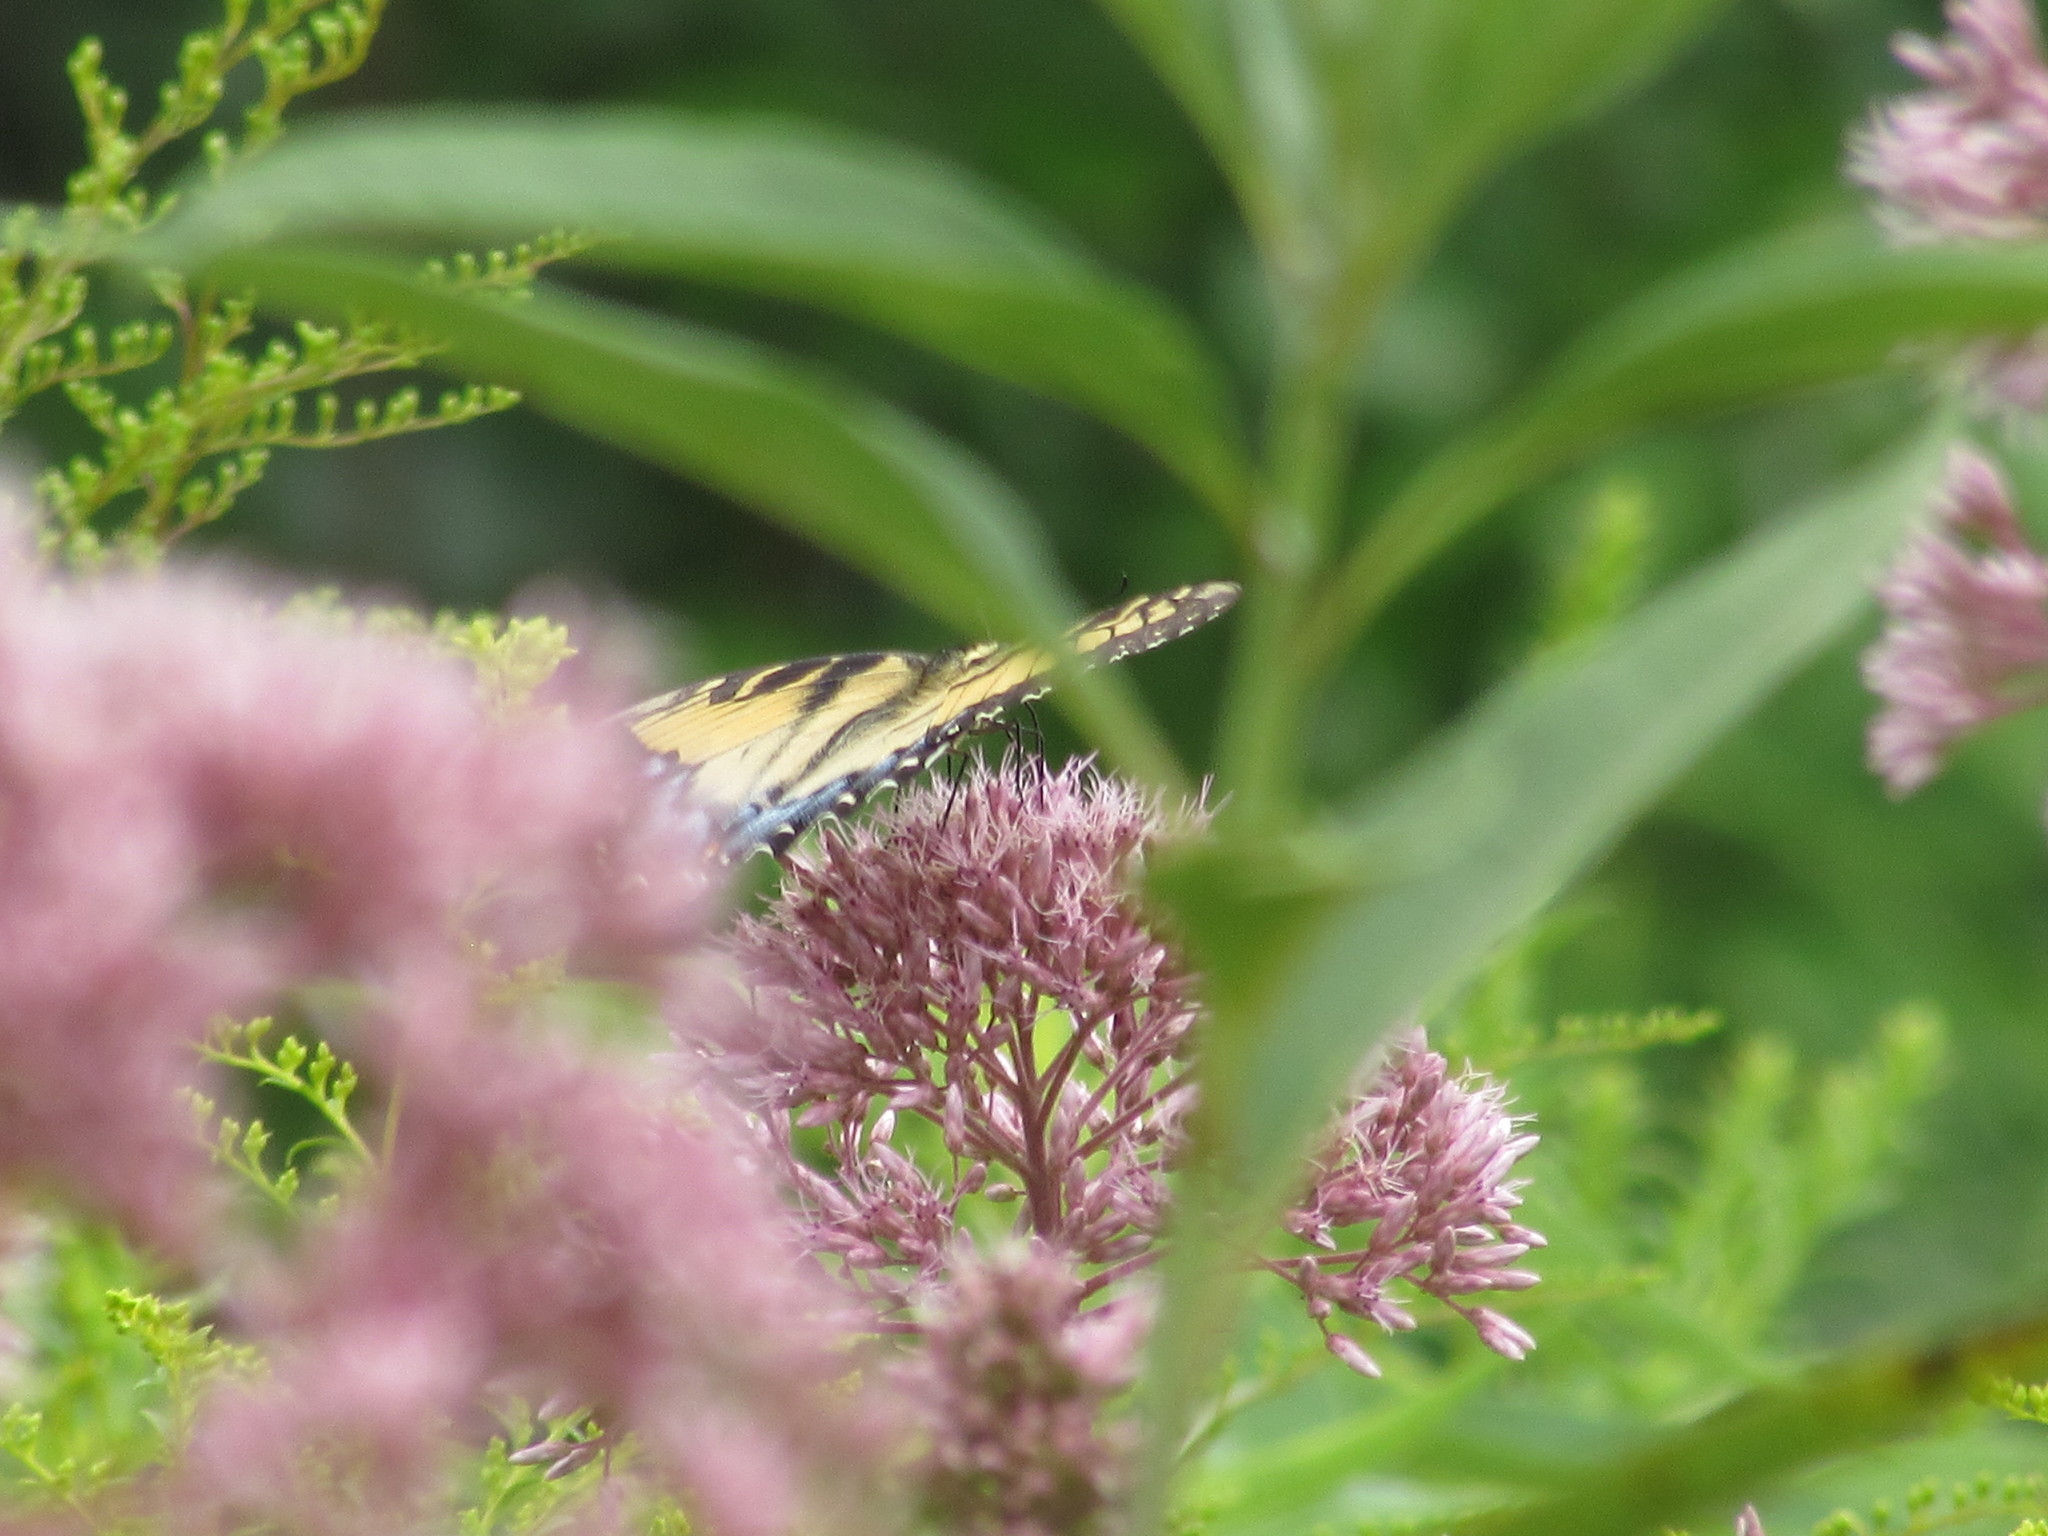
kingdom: Animalia
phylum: Arthropoda
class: Insecta
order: Lepidoptera
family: Papilionidae
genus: Papilio
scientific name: Papilio glaucus
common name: Tiger swallowtail
